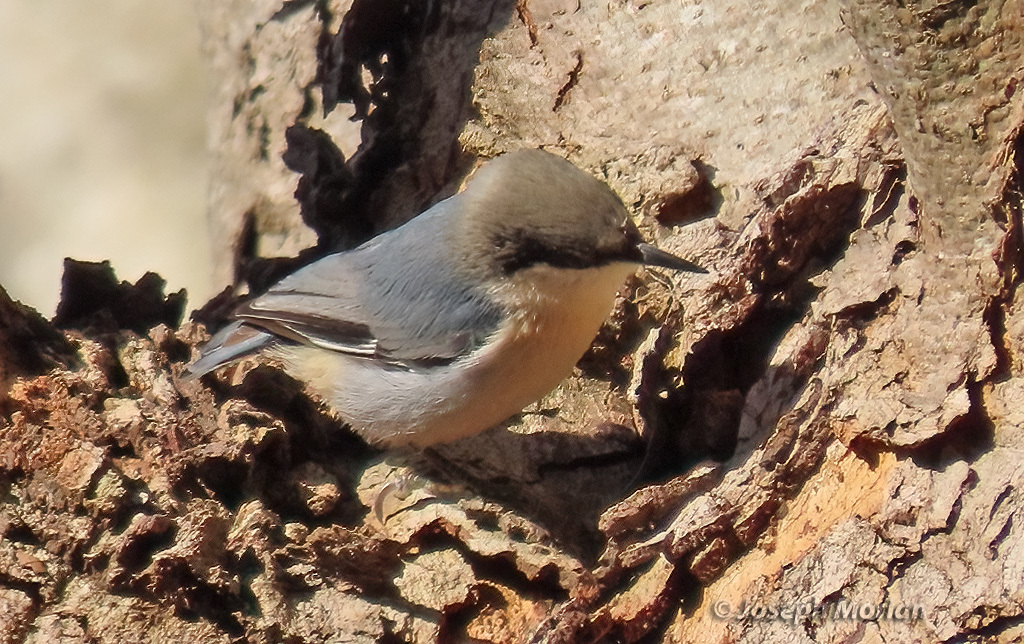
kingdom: Animalia
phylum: Chordata
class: Aves
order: Passeriformes
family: Sittidae
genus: Sitta
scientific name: Sitta pygmaea
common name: Pygmy nuthatch
